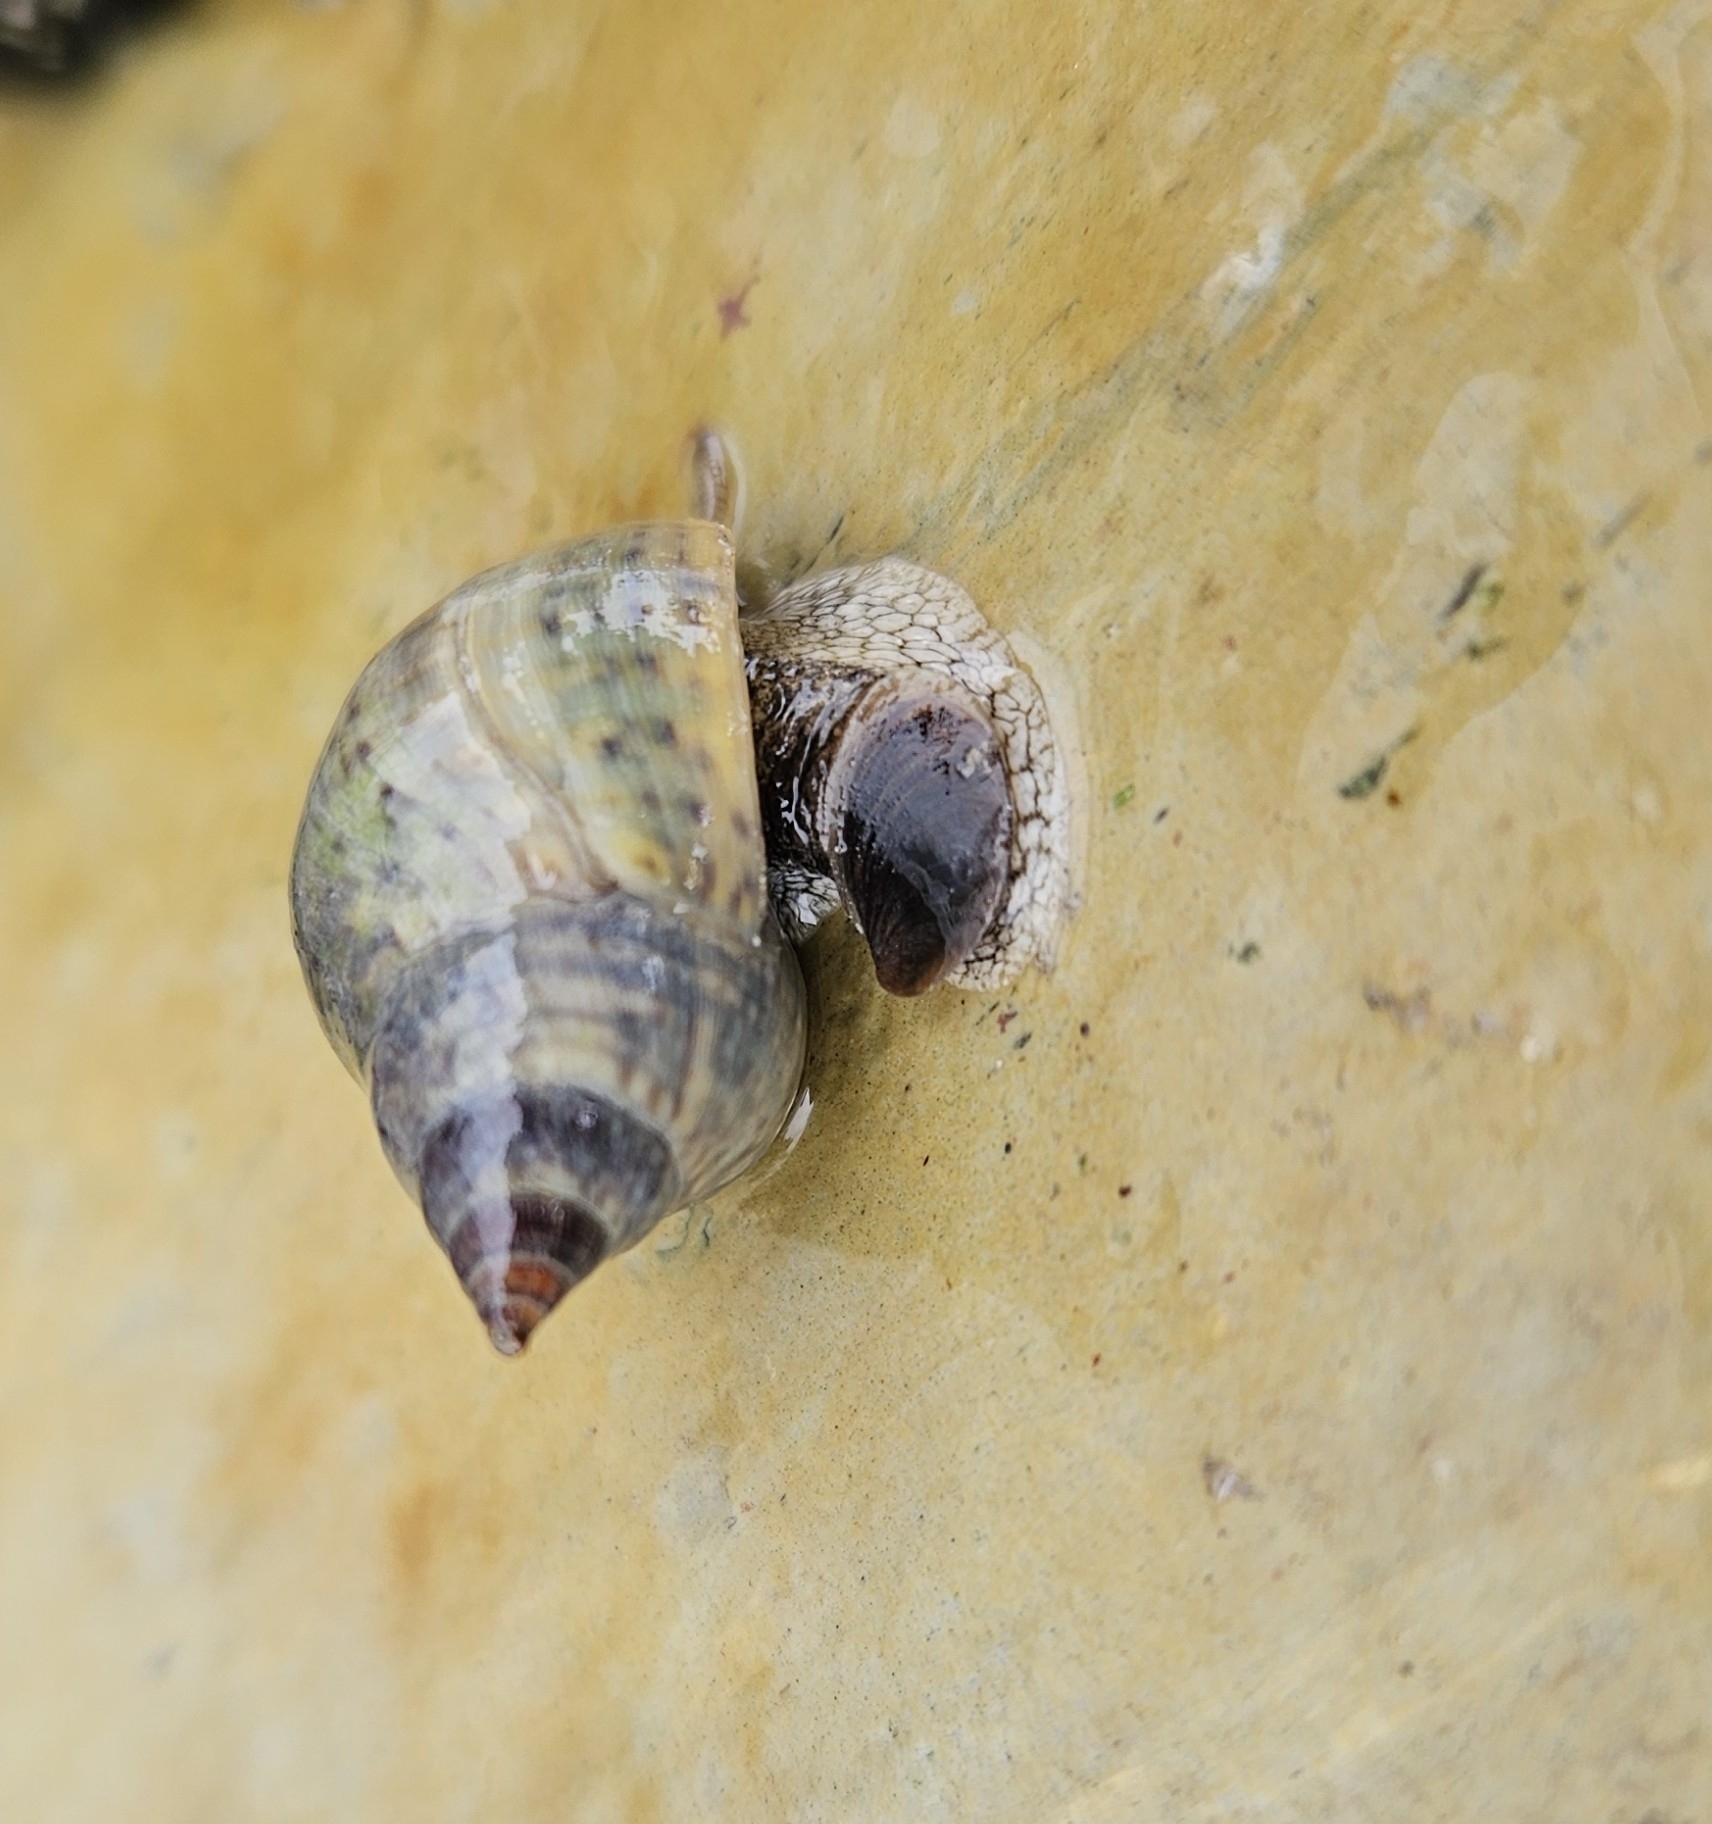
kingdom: Animalia
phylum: Mollusca
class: Gastropoda
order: Neogastropoda
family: Cominellidae
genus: Cominella
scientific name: Cominella maculosa
